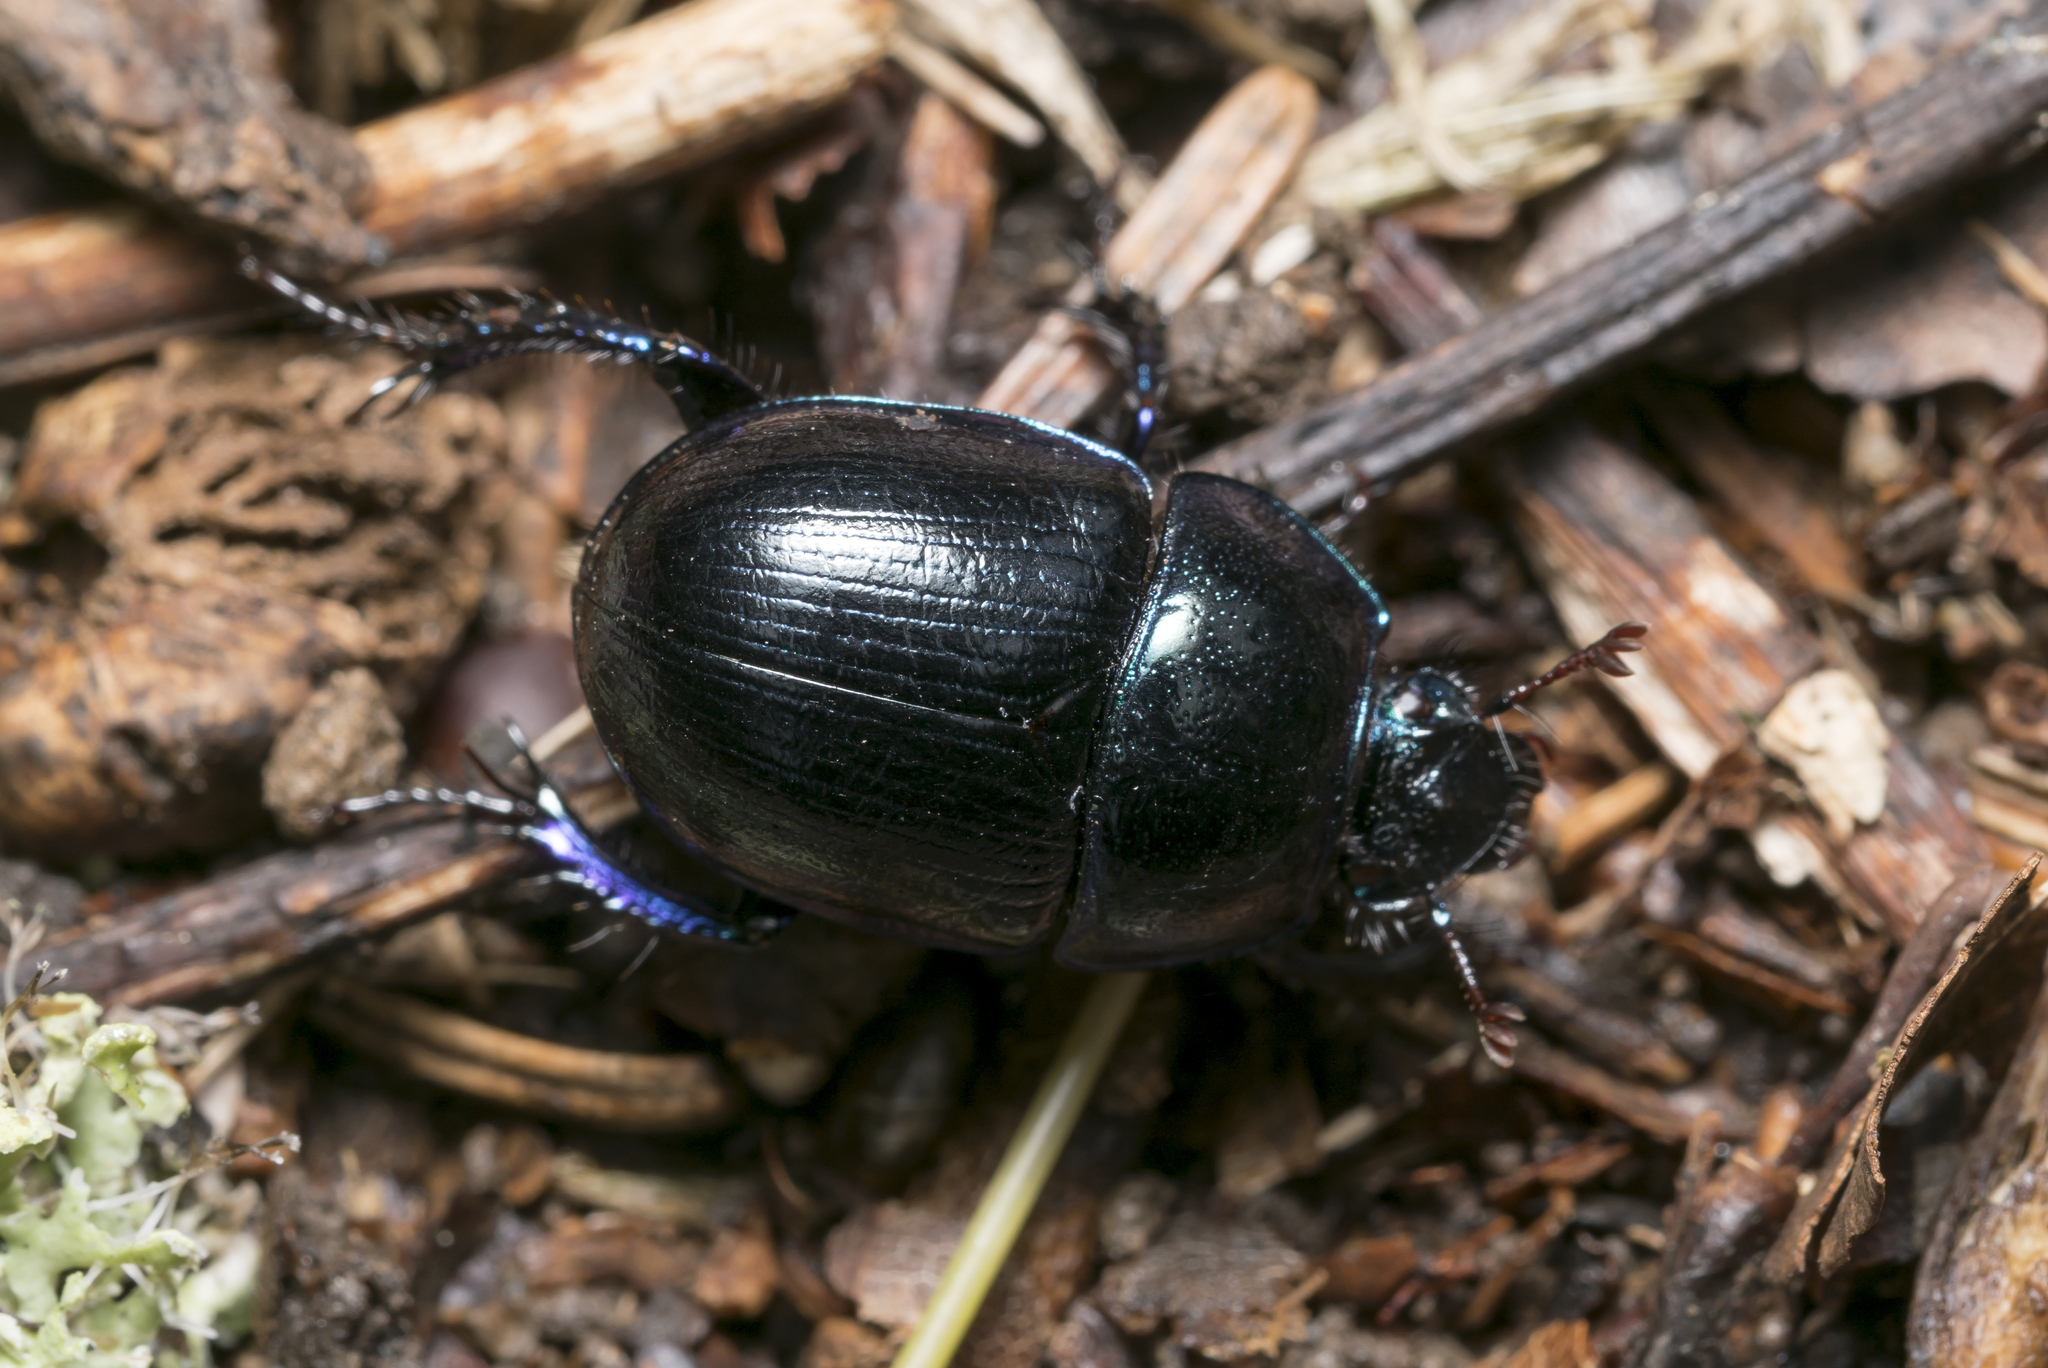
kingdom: Animalia
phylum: Arthropoda
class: Insecta
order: Coleoptera
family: Geotrupidae
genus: Anoplotrupes
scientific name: Anoplotrupes stercorosus
